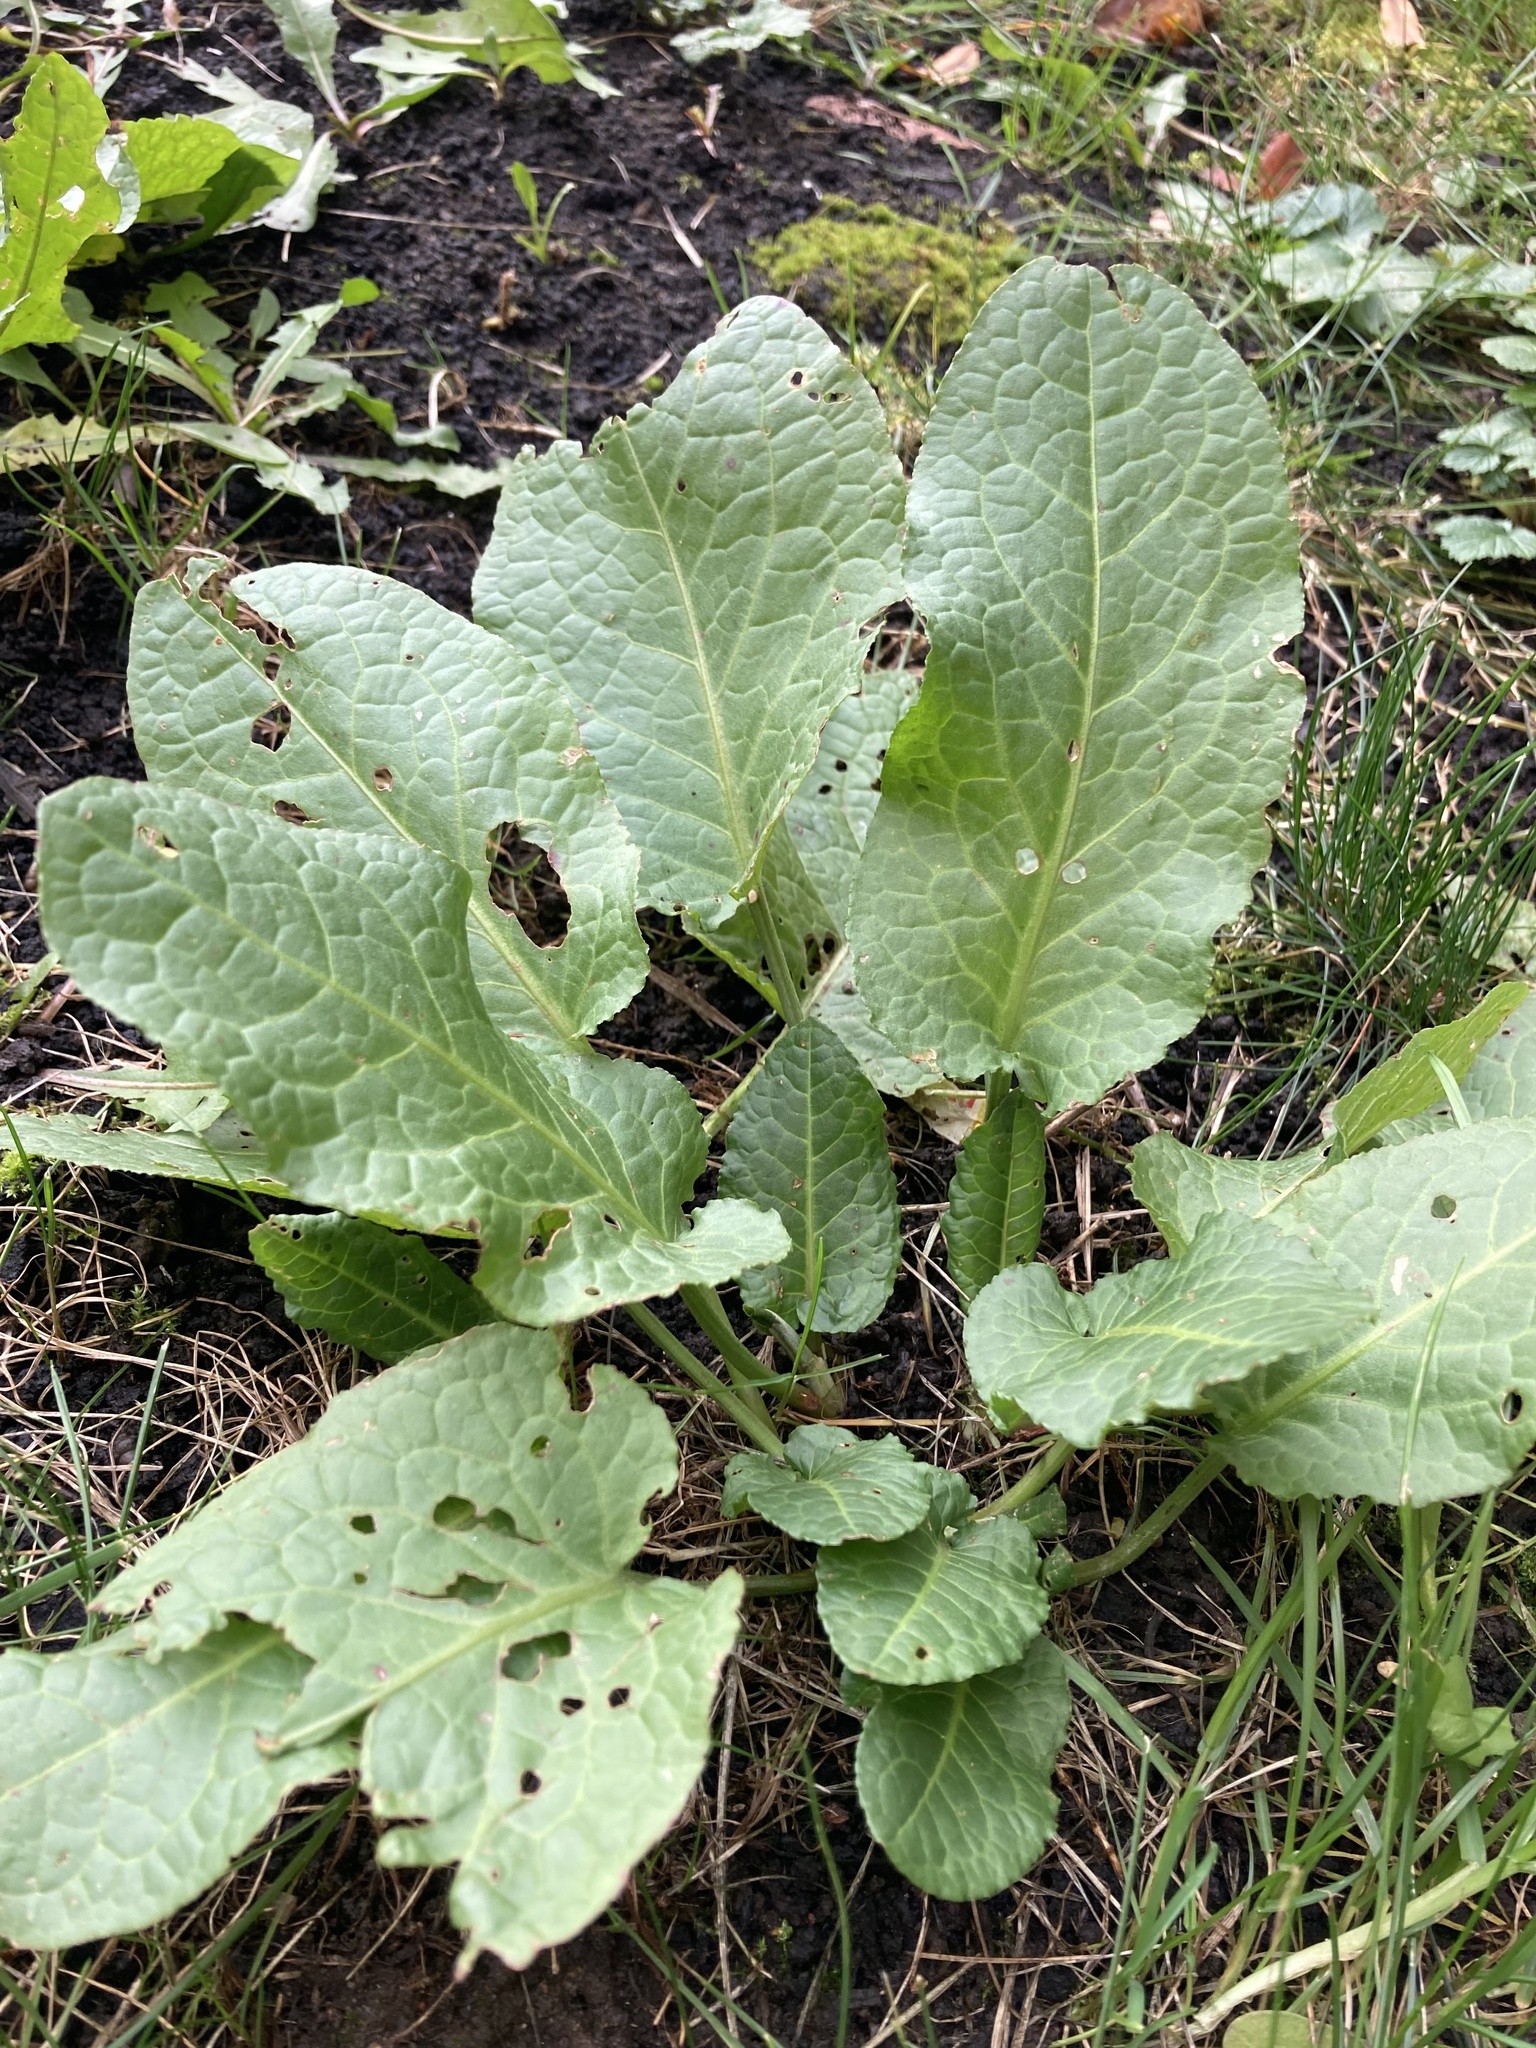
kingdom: Plantae
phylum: Tracheophyta
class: Magnoliopsida
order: Caryophyllales
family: Polygonaceae
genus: Rumex
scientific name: Rumex obtusifolius
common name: Bitter dock
